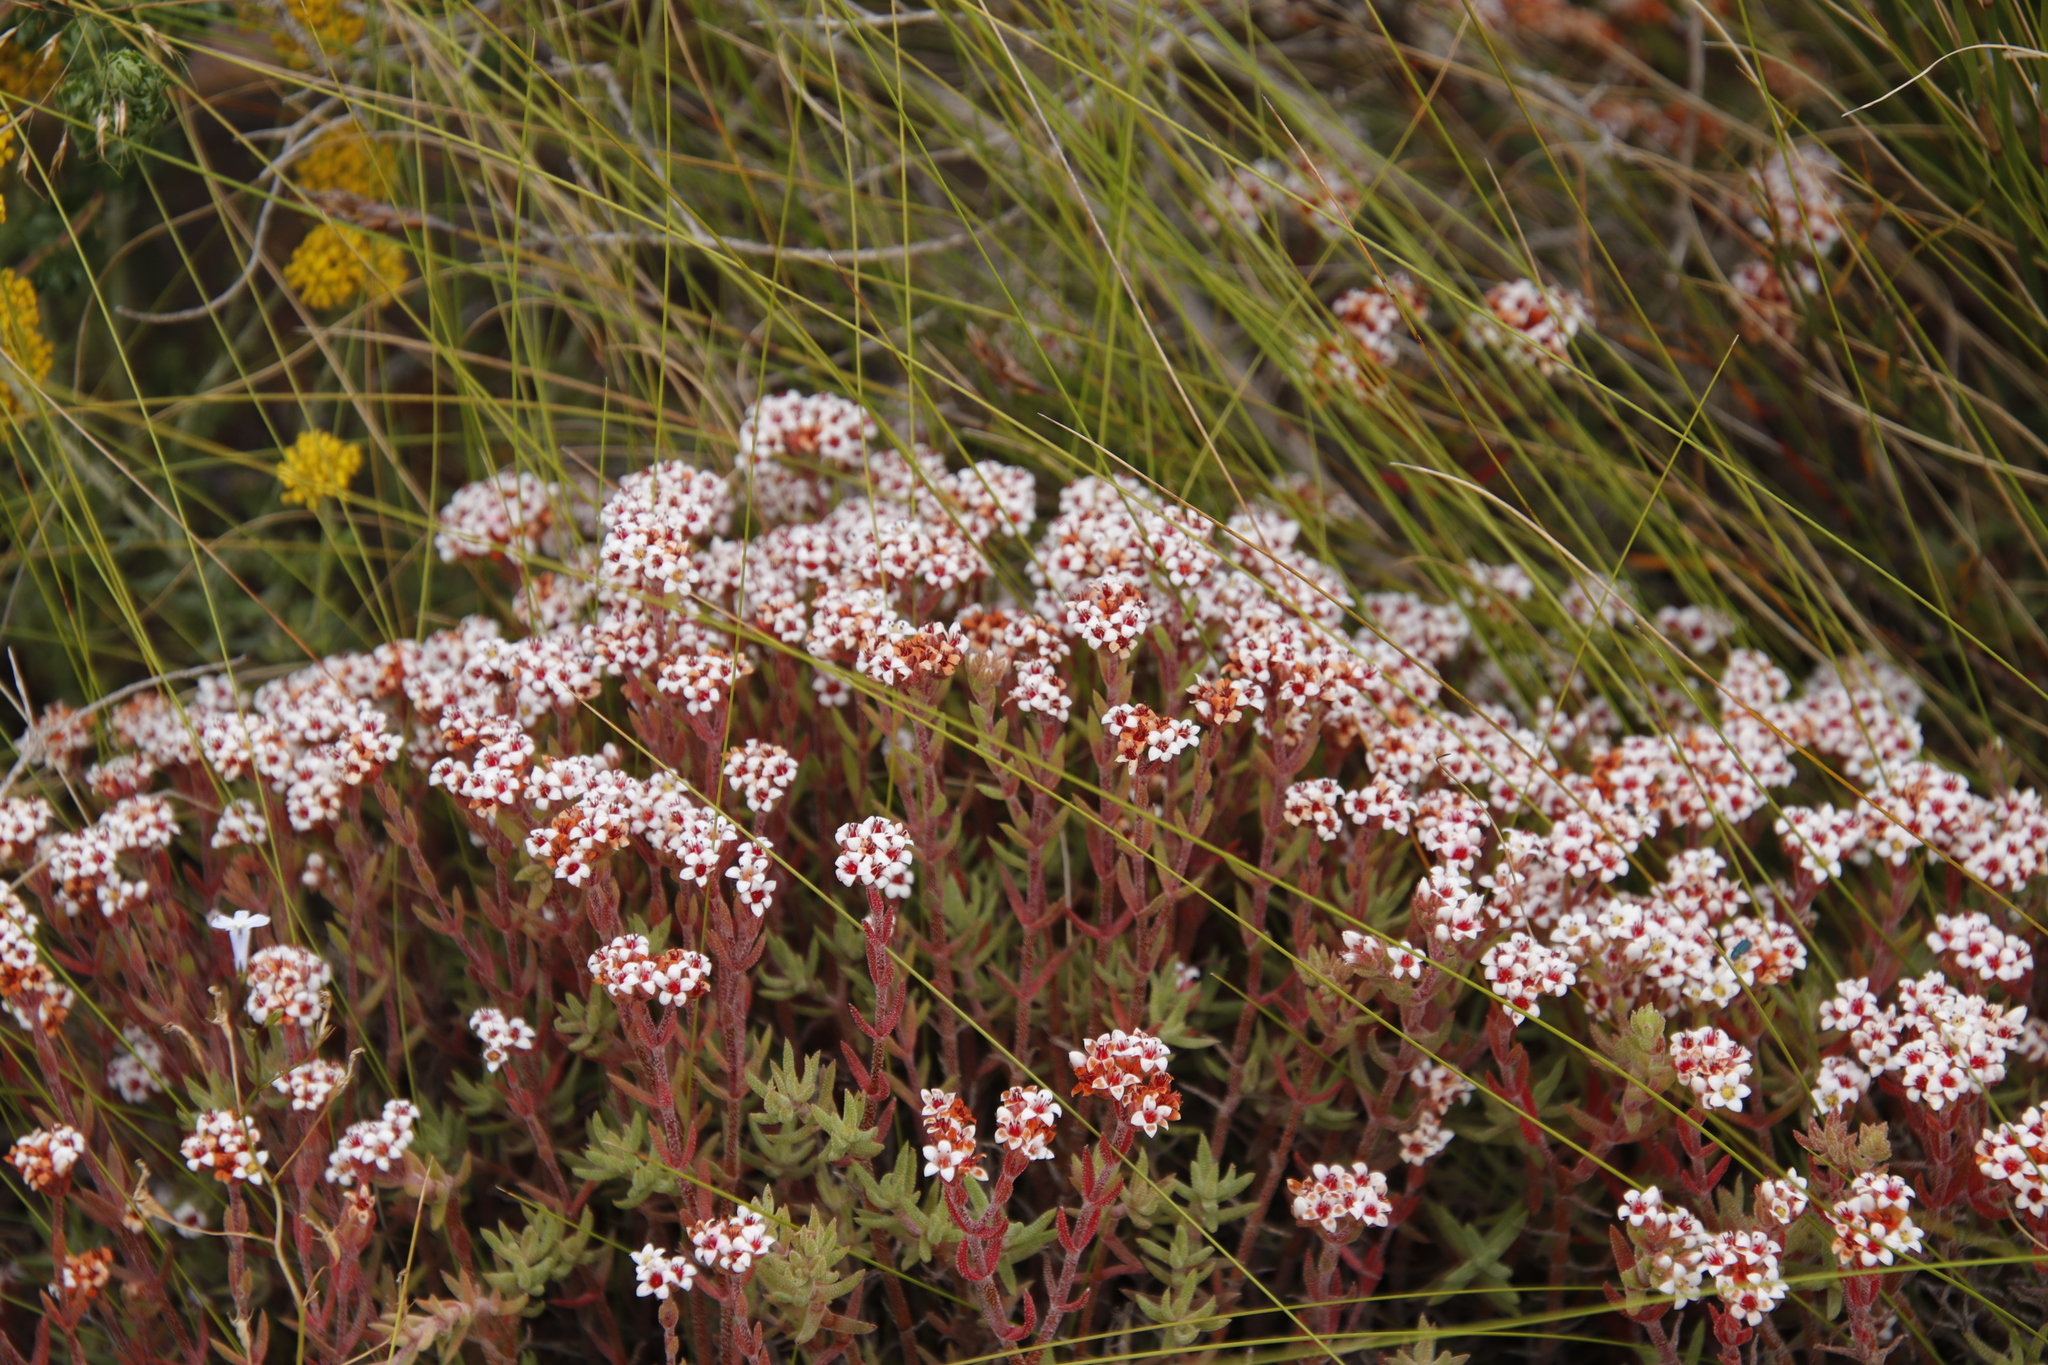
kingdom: Plantae
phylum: Tracheophyta
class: Magnoliopsida
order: Saxifragales
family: Crassulaceae
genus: Crassula
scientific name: Crassula pruinosa
